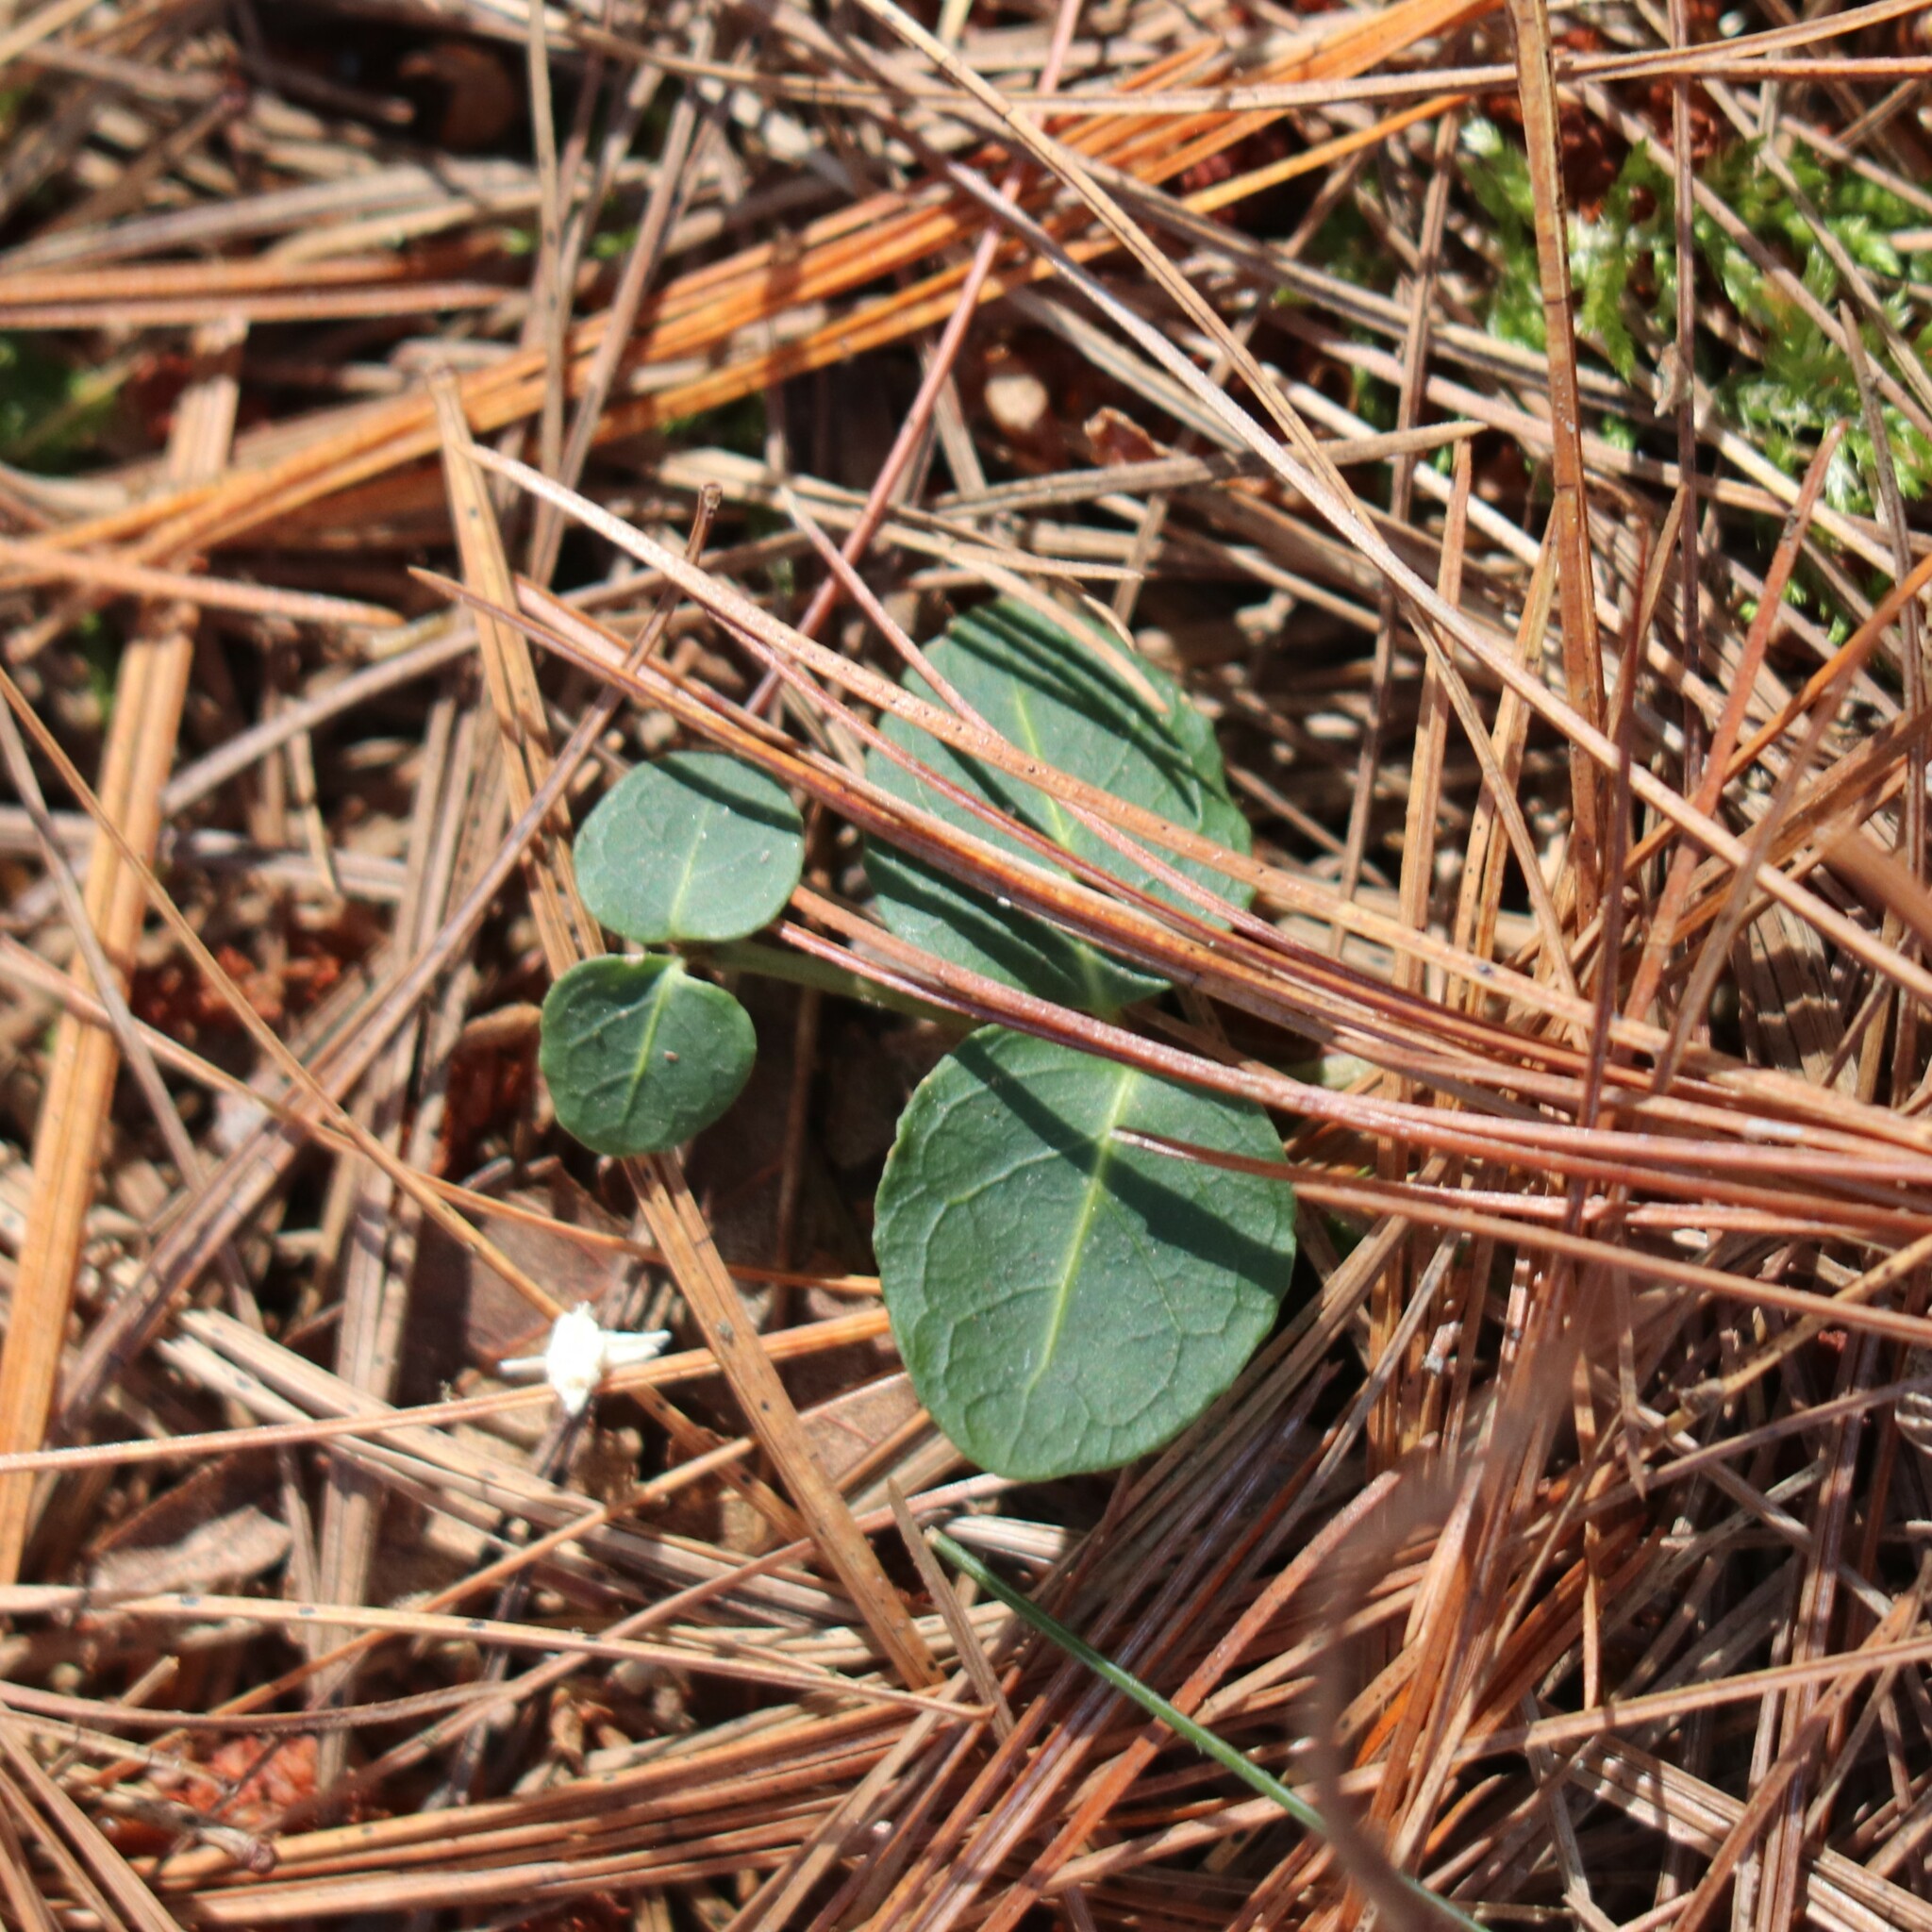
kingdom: Plantae
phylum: Tracheophyta
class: Magnoliopsida
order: Gentianales
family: Rubiaceae
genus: Mitchella
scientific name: Mitchella repens
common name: Partridge-berry
